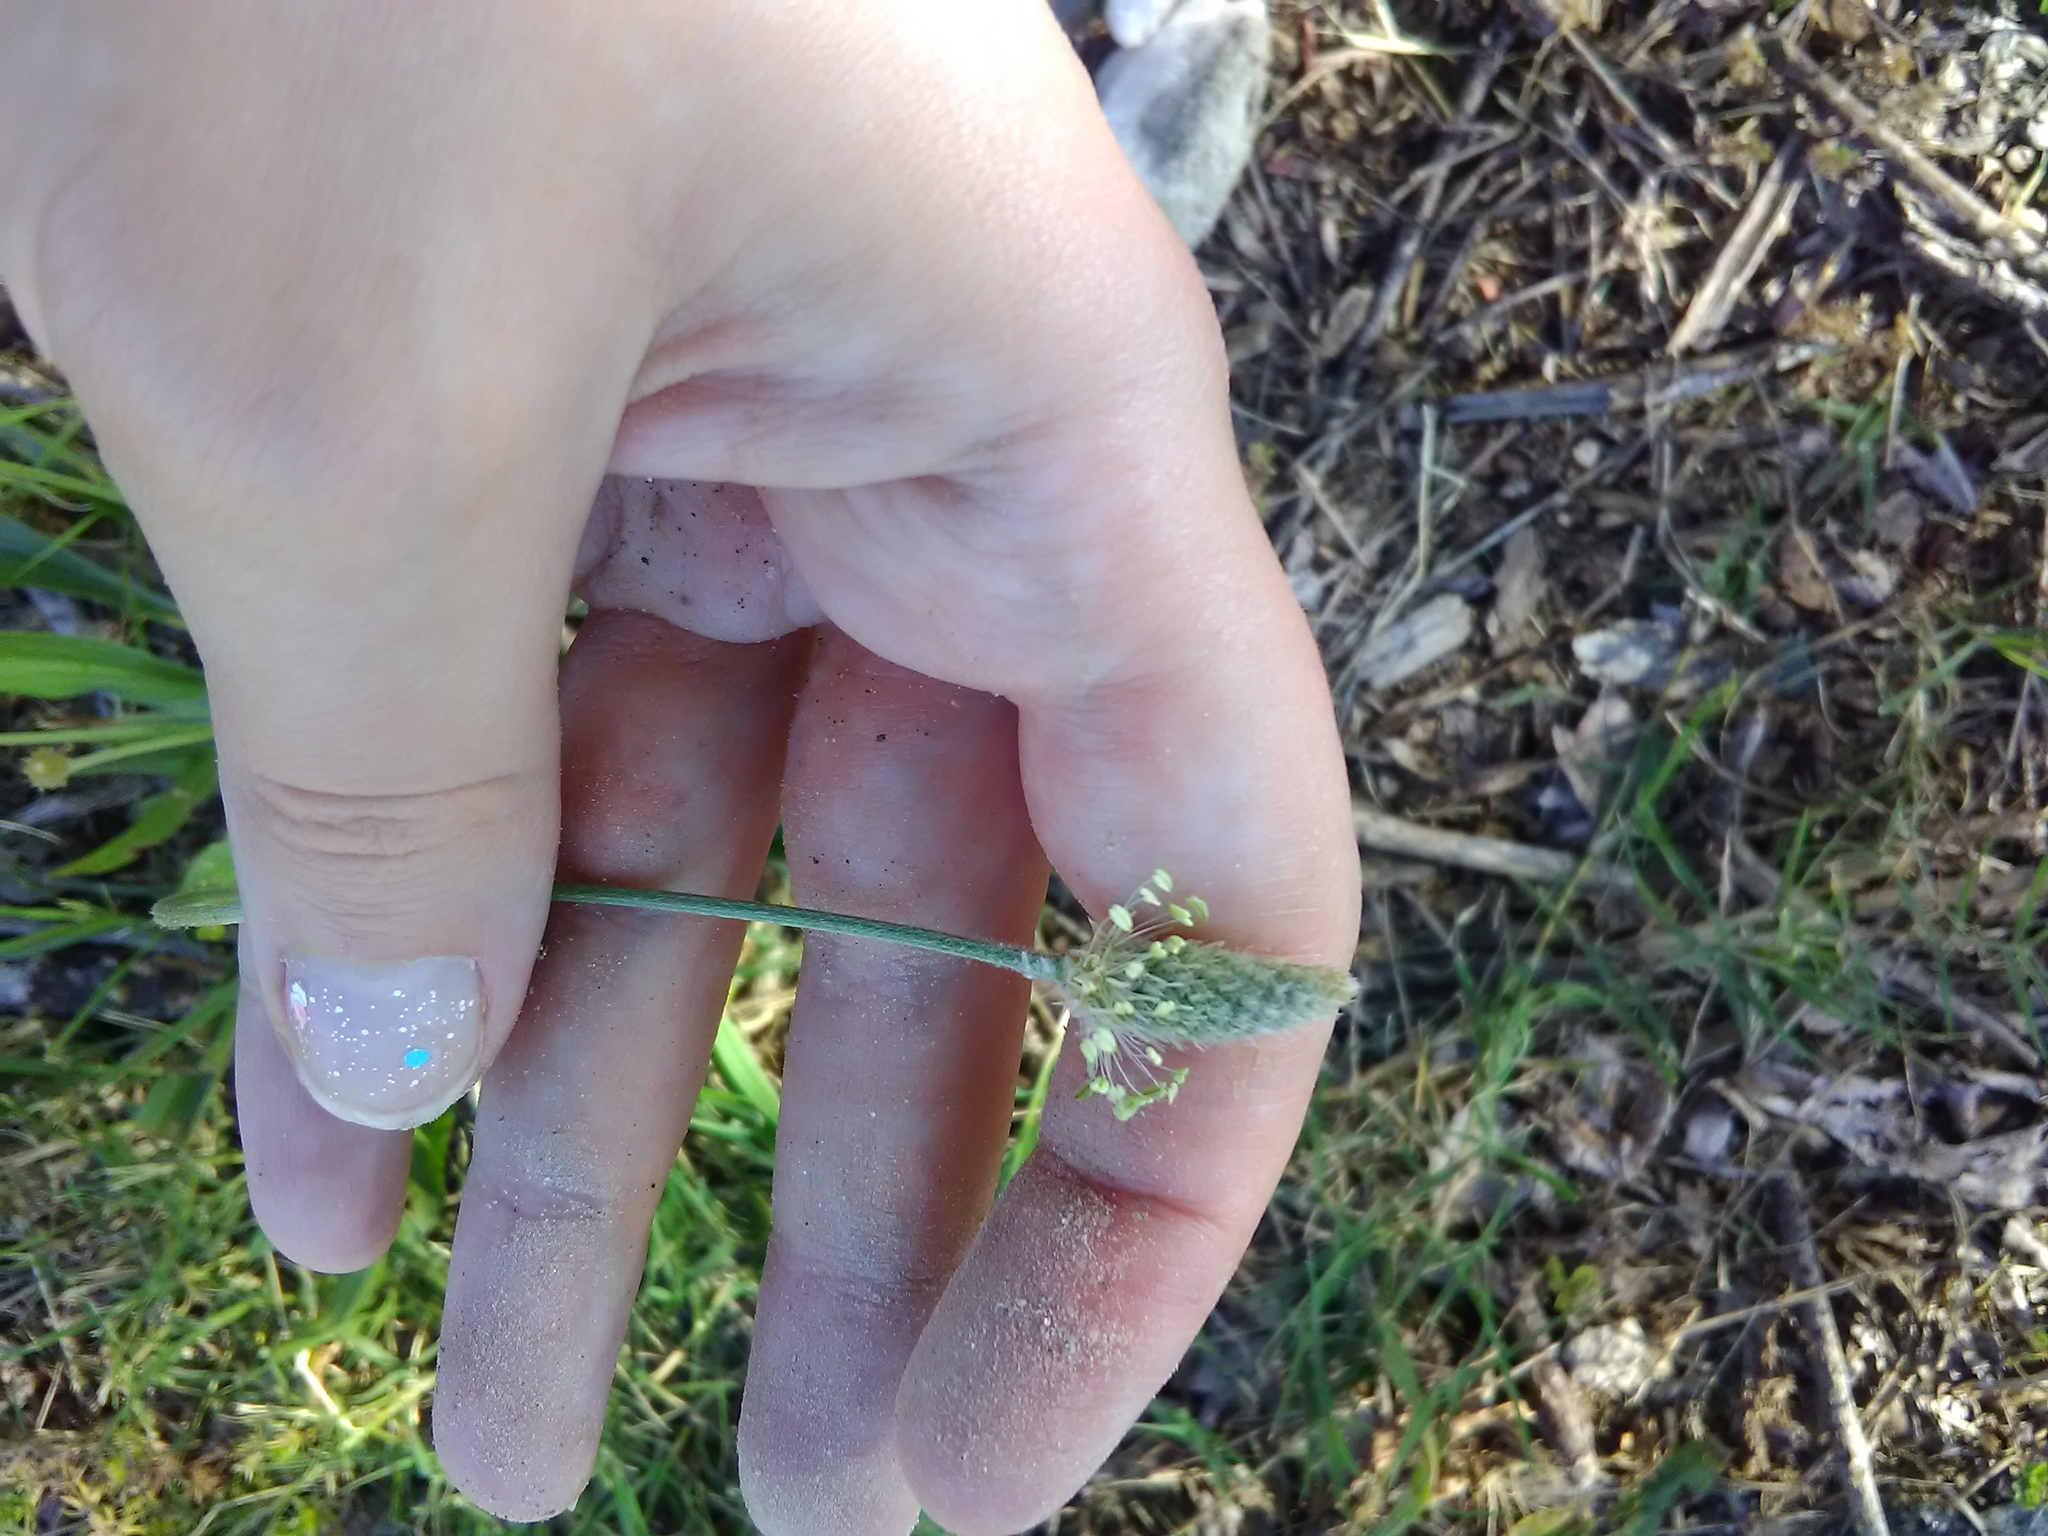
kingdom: Plantae
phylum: Tracheophyta
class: Magnoliopsida
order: Lamiales
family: Plantaginaceae
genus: Plantago
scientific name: Plantago lanceolata
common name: Ribwort plantain
